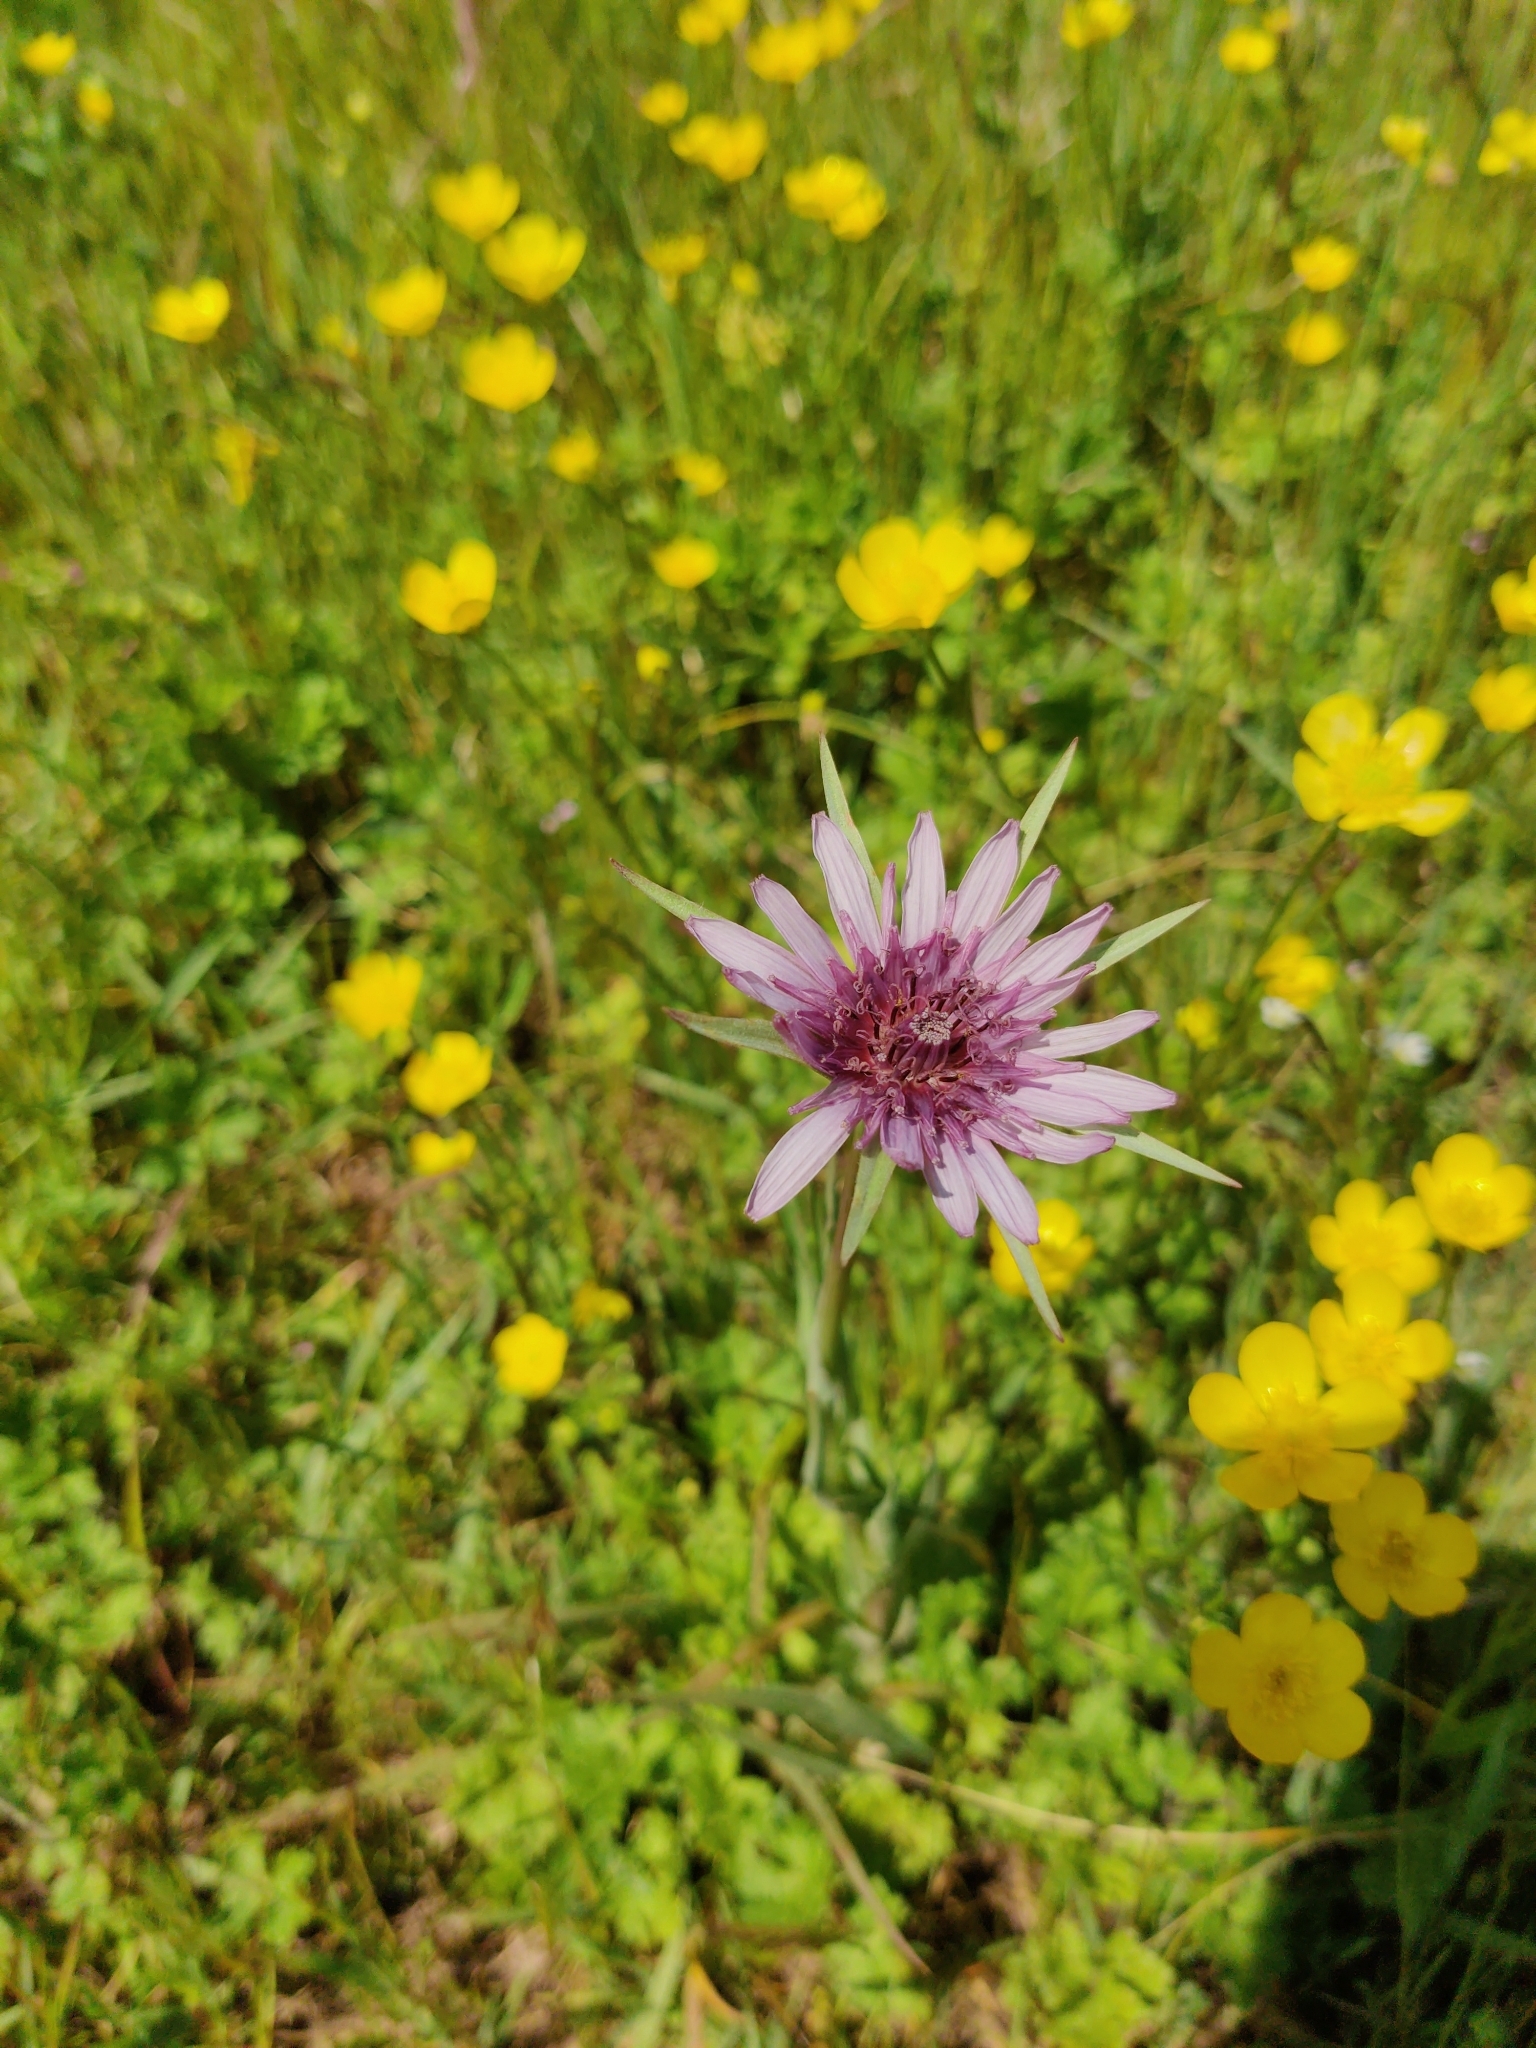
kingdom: Plantae
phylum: Tracheophyta
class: Magnoliopsida
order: Asterales
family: Asteraceae
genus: Tragopogon
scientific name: Tragopogon porrifolius
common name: Salsify
